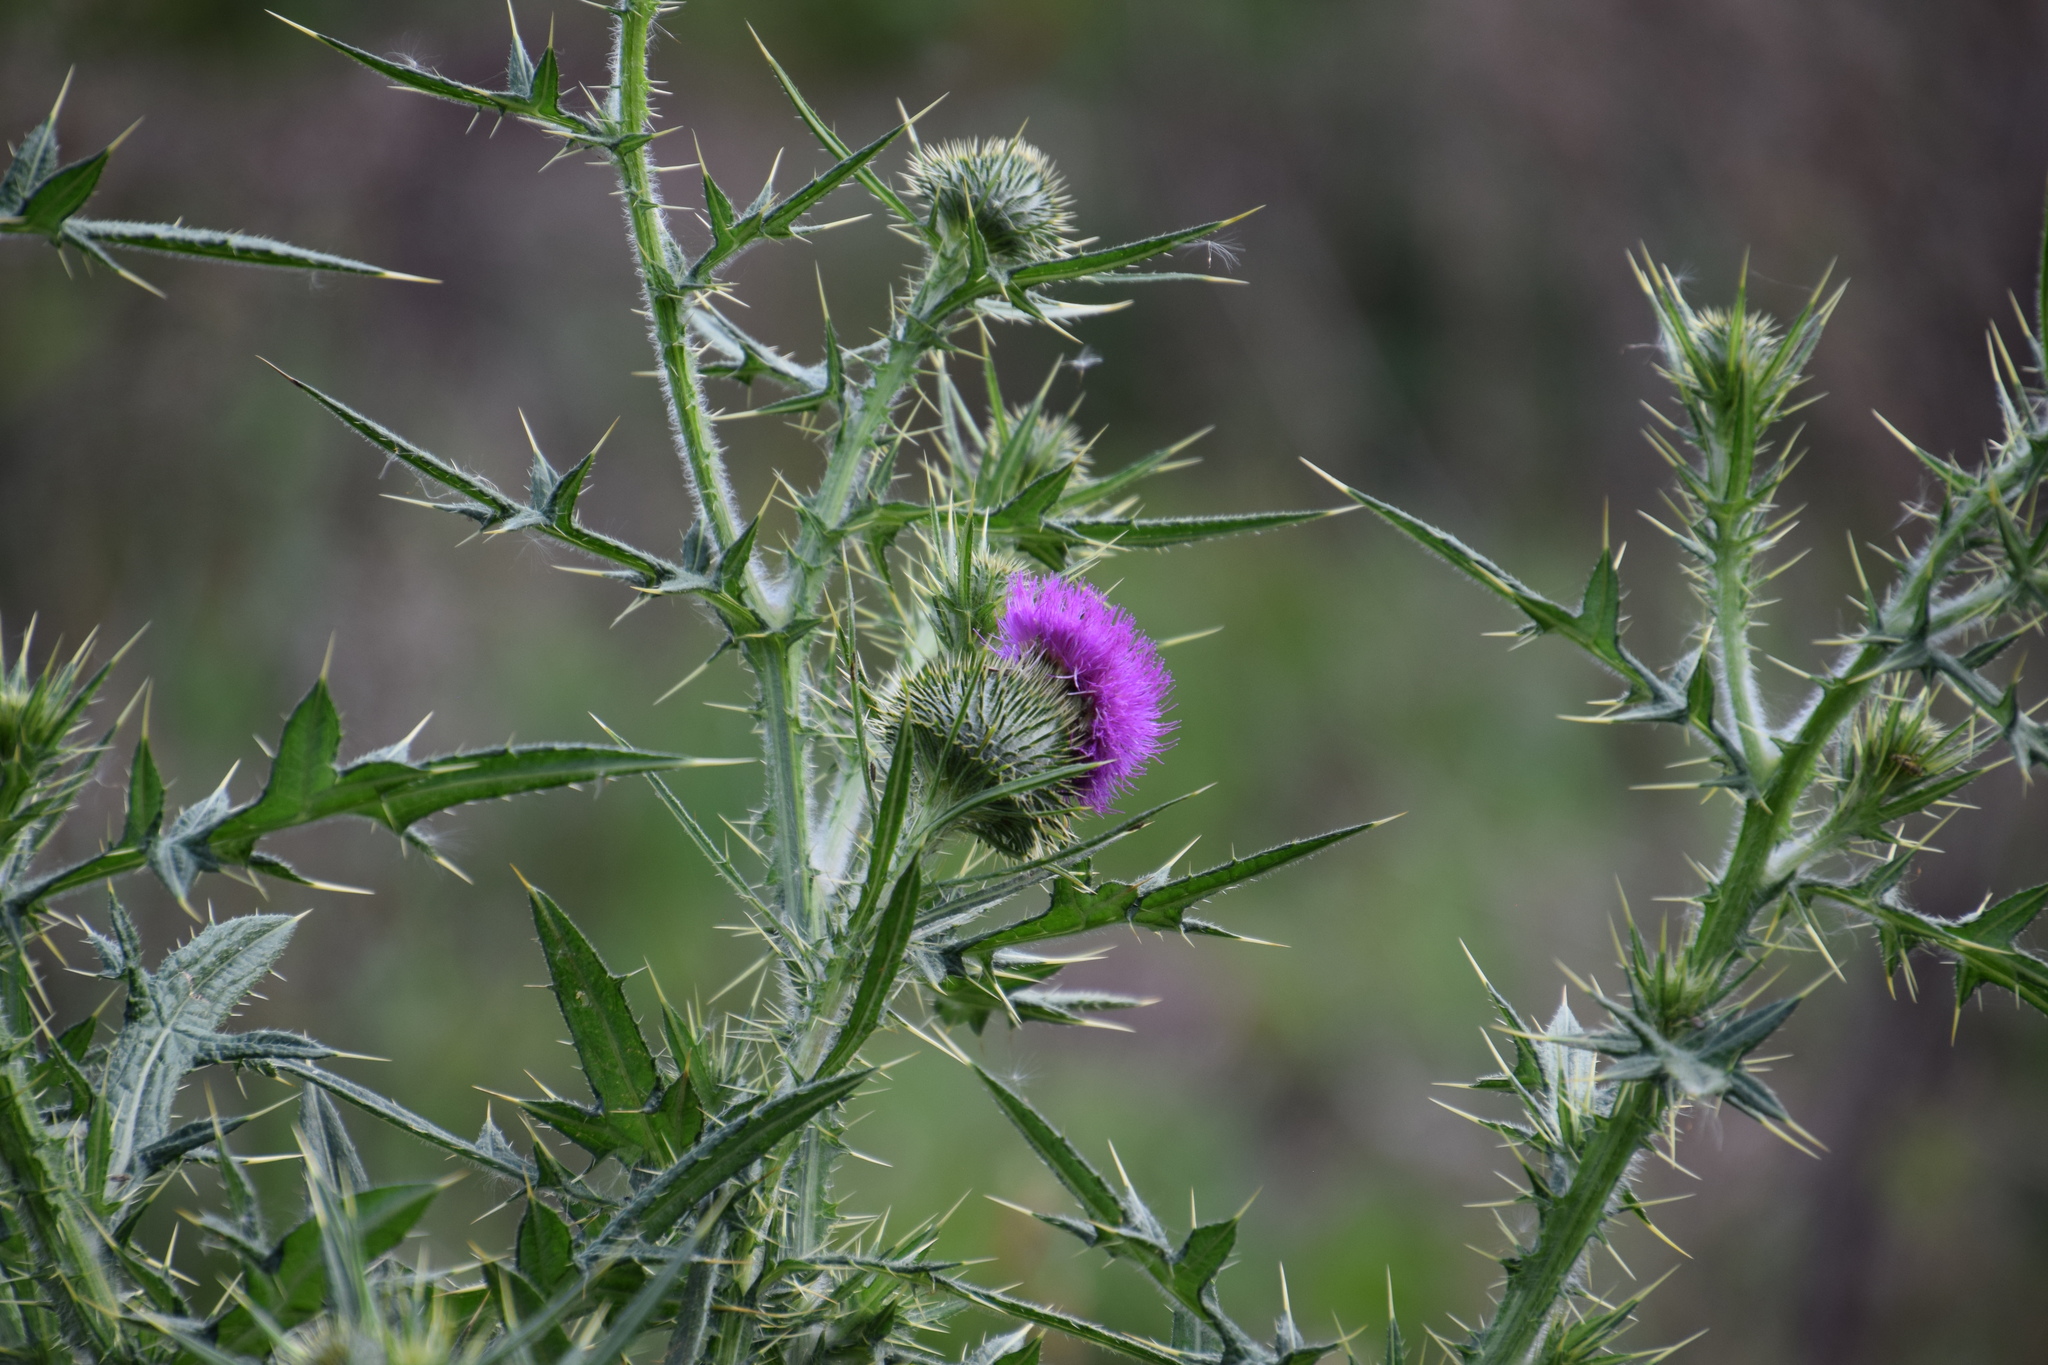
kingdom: Plantae
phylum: Tracheophyta
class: Magnoliopsida
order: Asterales
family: Asteraceae
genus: Cirsium
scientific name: Cirsium vulgare
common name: Bull thistle
